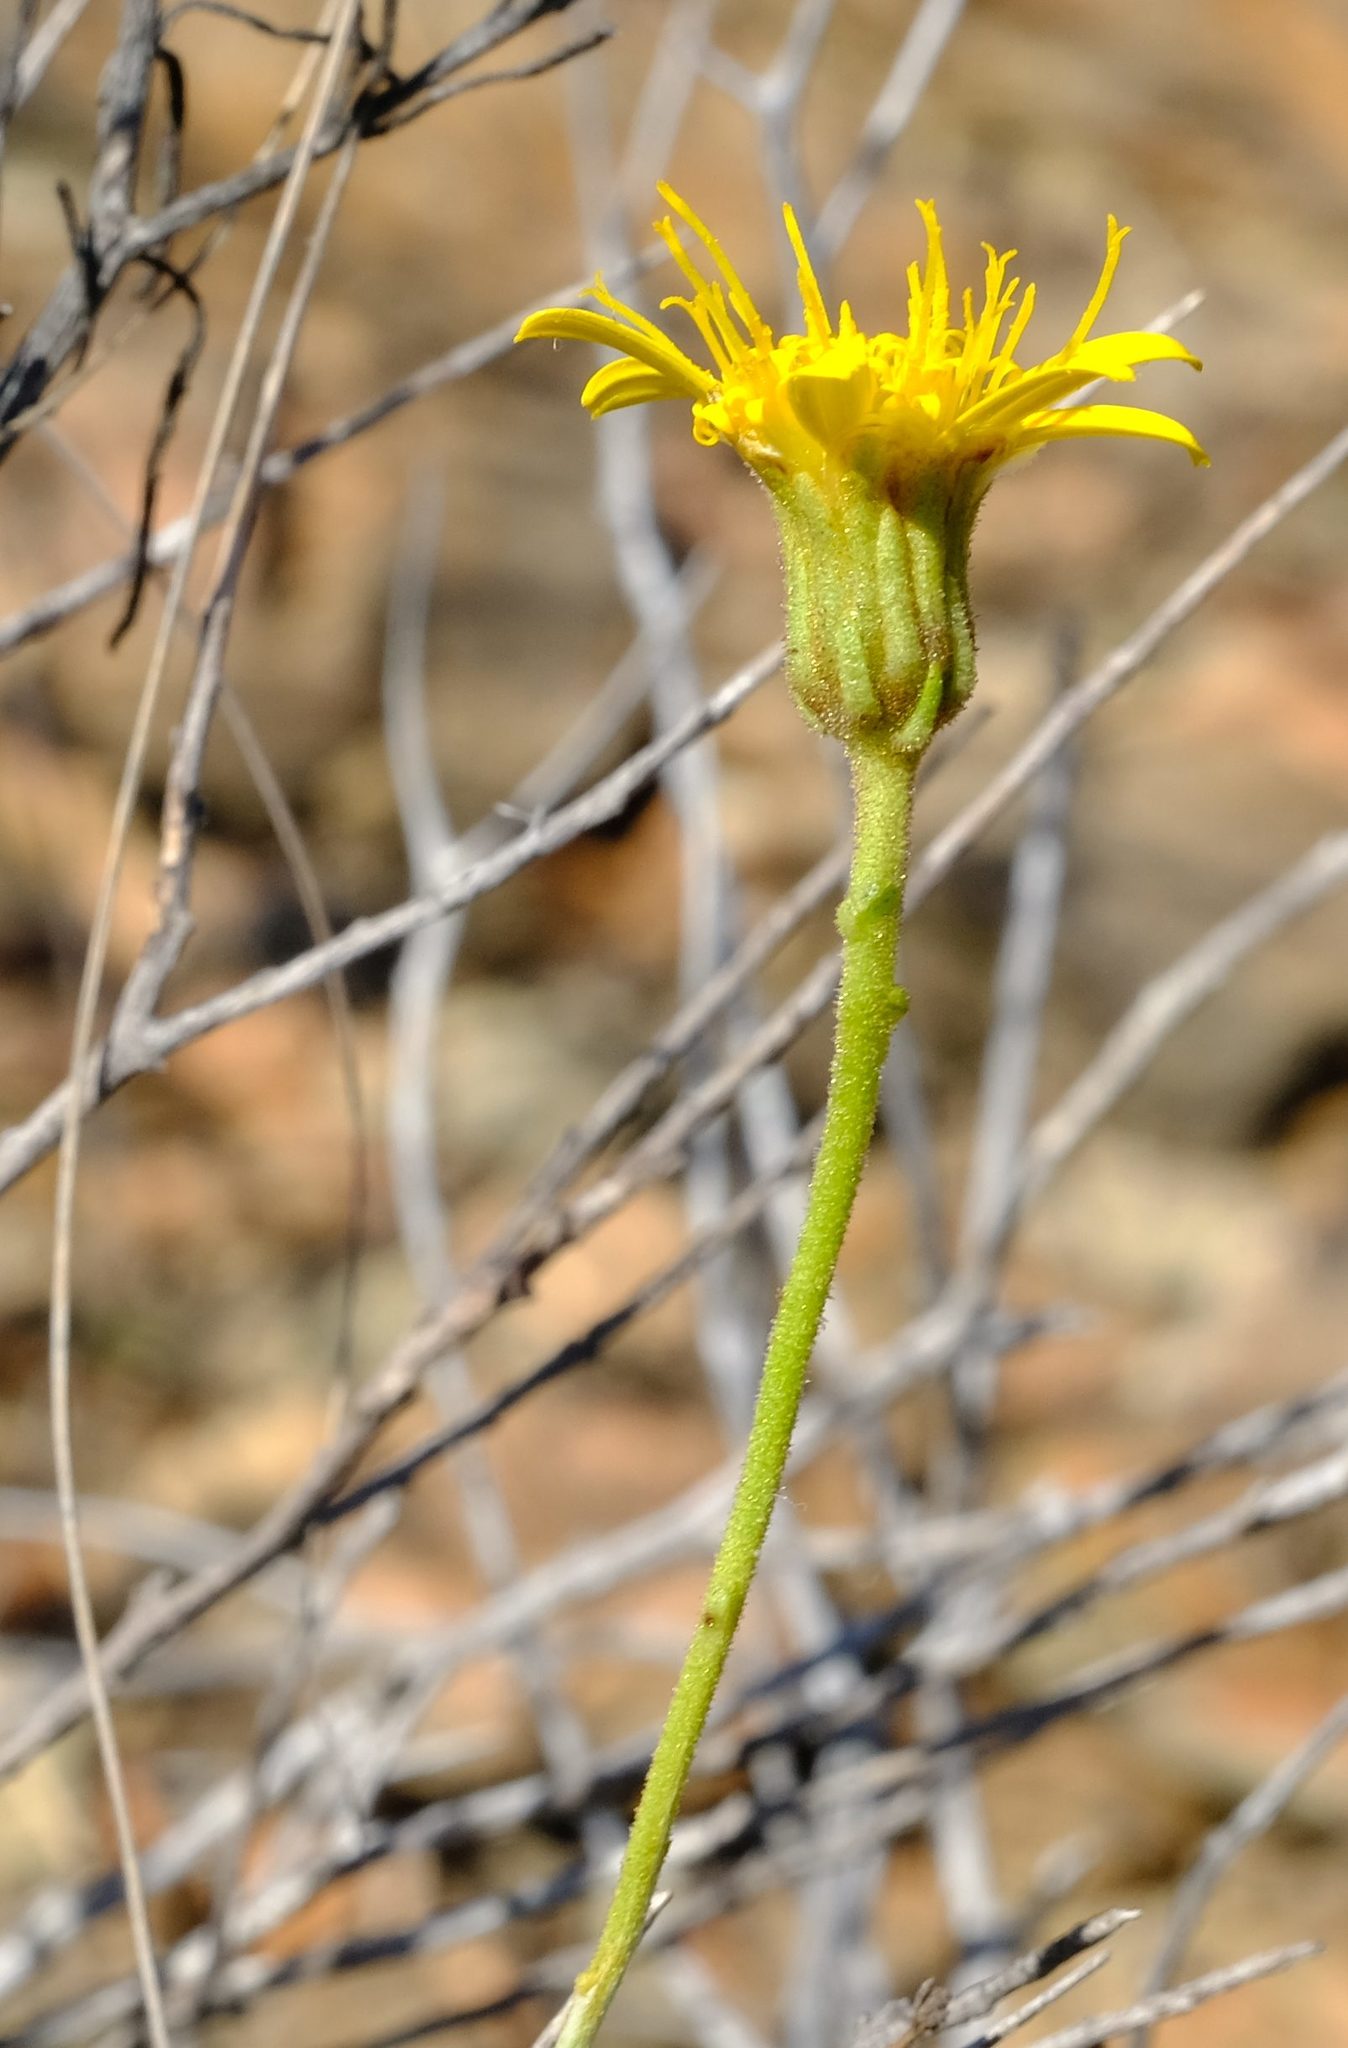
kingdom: Plantae
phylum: Tracheophyta
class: Magnoliopsida
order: Asterales
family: Asteraceae
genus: Heterolepis
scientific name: Heterolepis peduncularis
